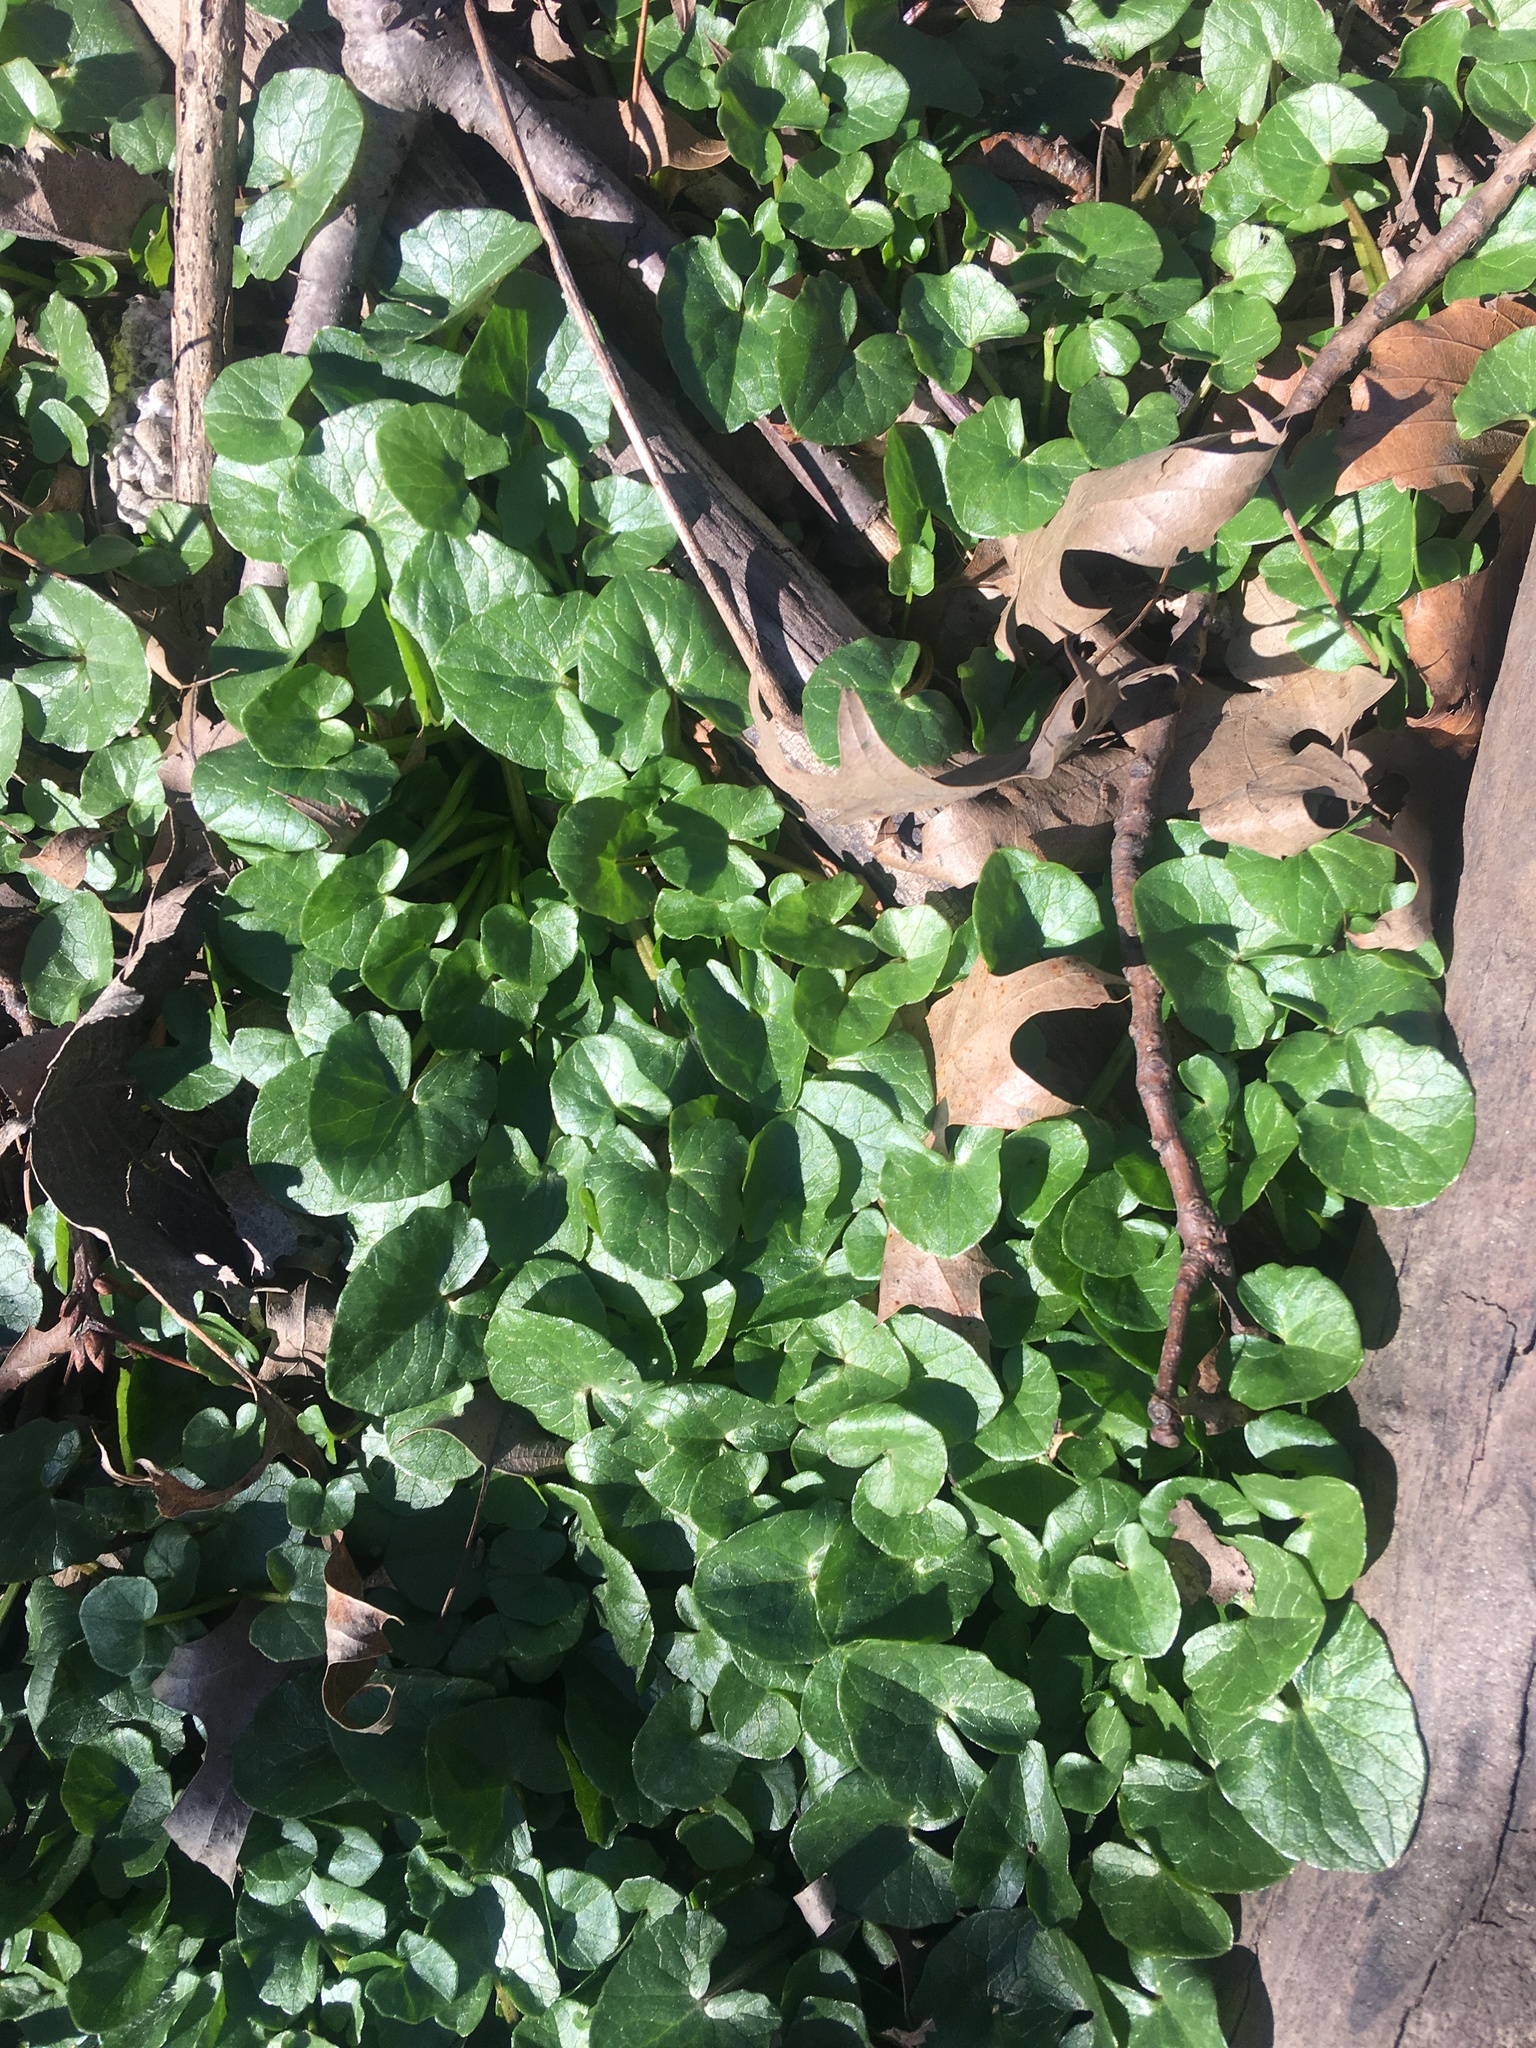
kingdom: Plantae
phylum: Tracheophyta
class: Magnoliopsida
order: Ranunculales
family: Ranunculaceae
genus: Ficaria
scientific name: Ficaria verna
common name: Lesser celandine
